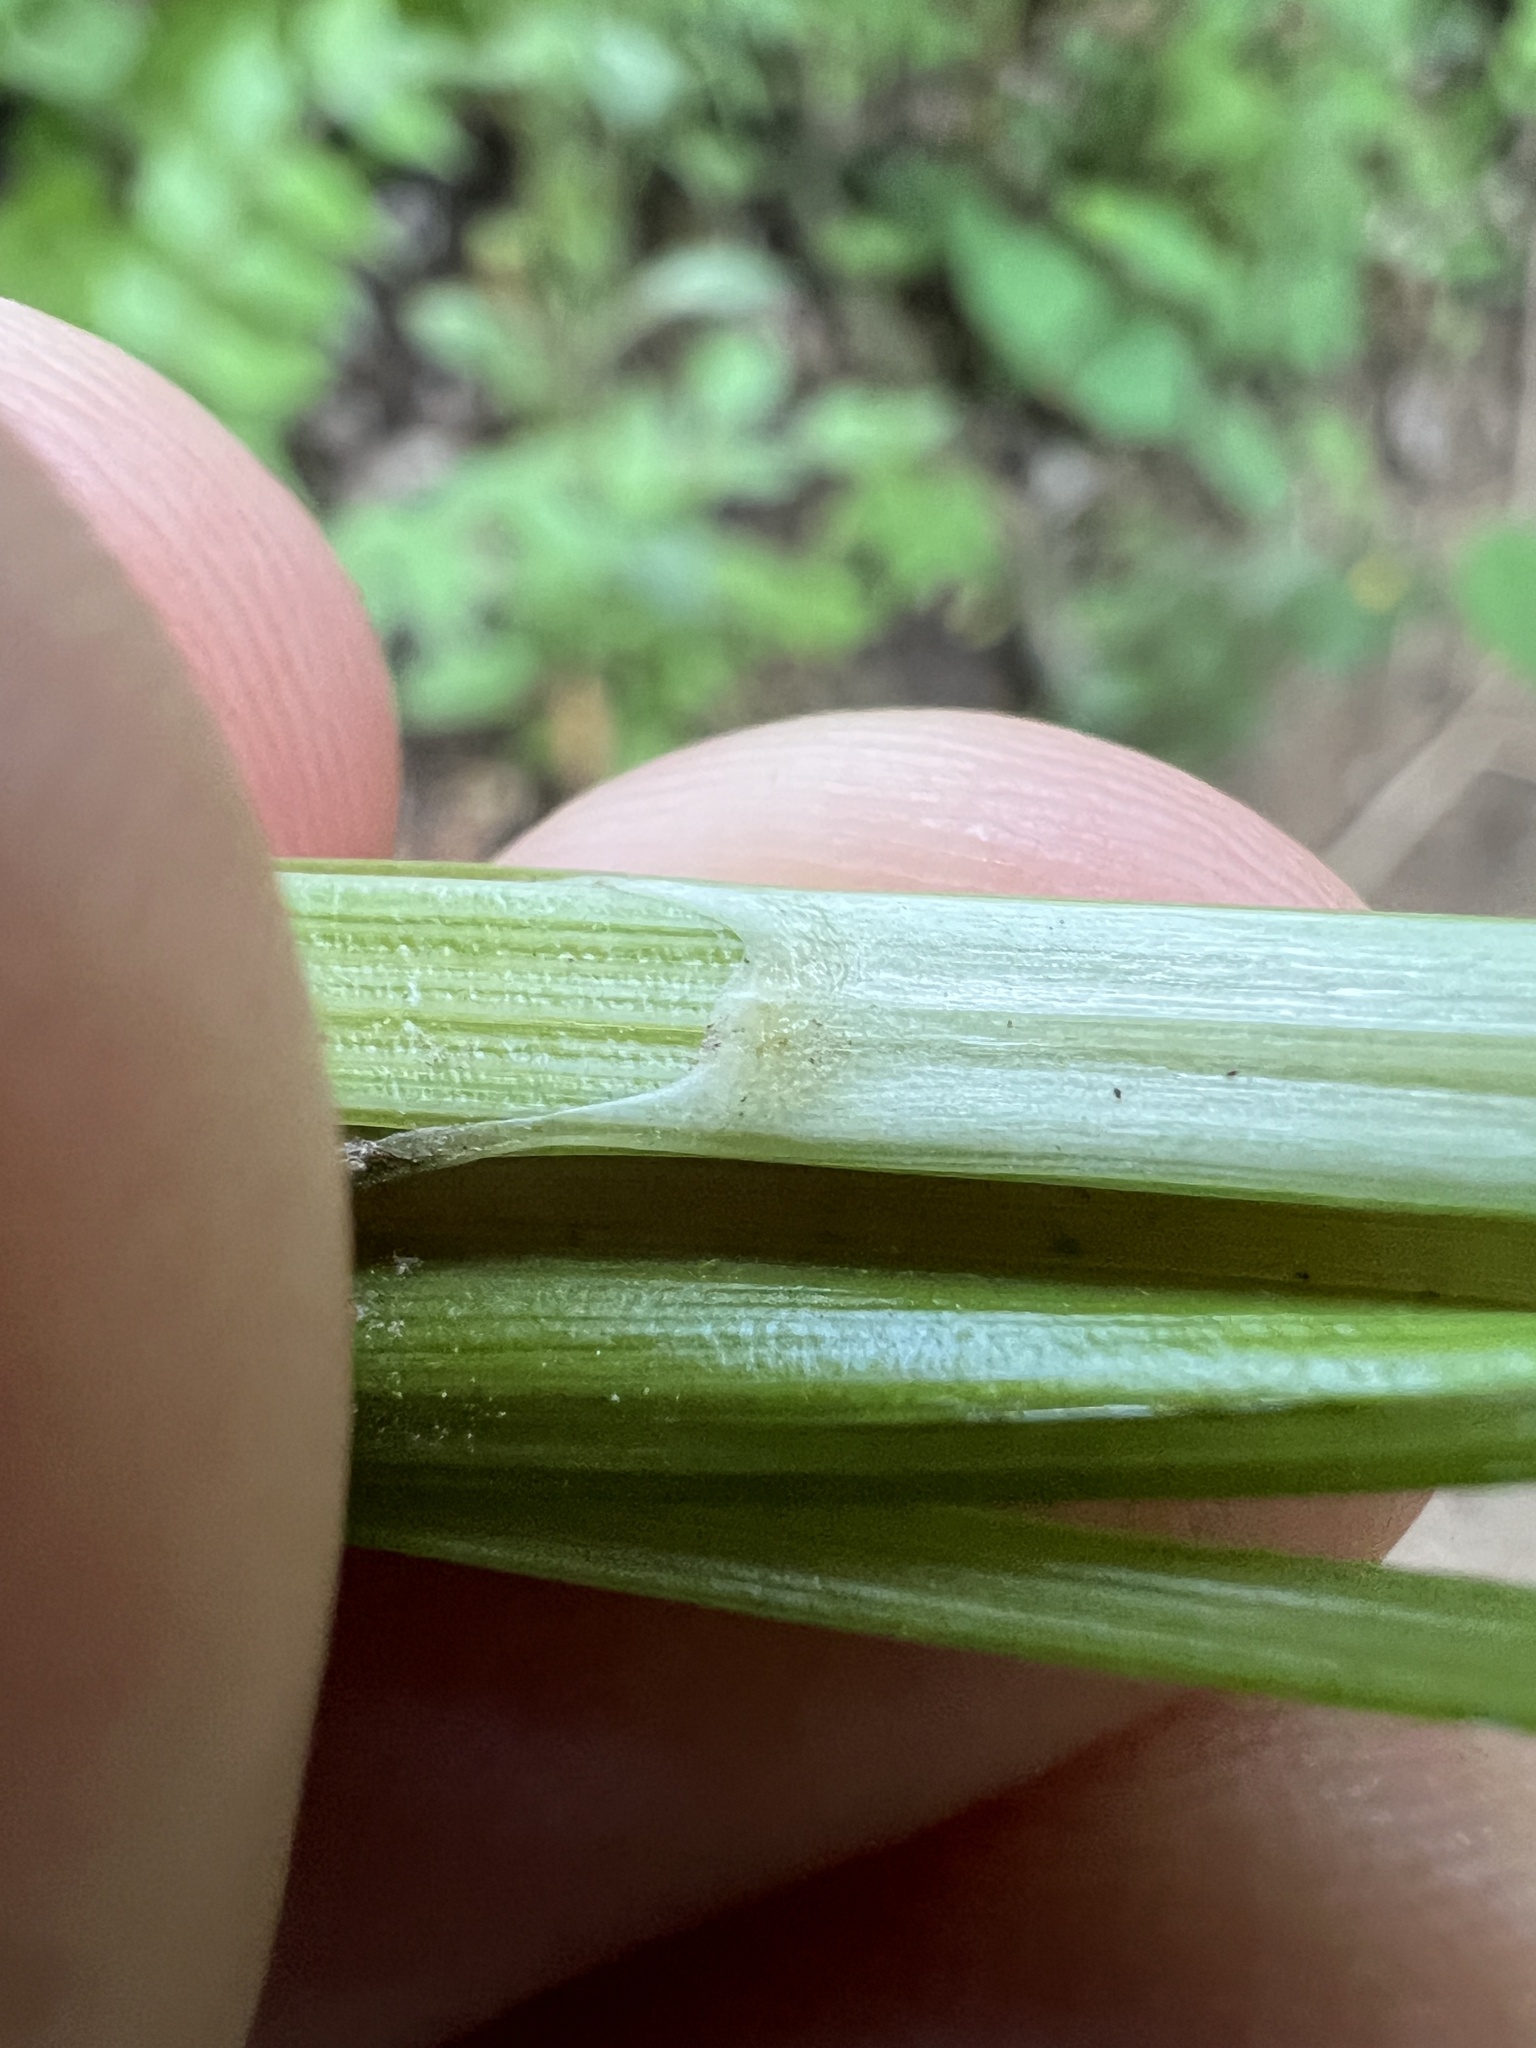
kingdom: Plantae
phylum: Tracheophyta
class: Liliopsida
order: Poales
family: Cyperaceae
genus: Carex
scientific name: Carex laevivaginata
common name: Smooth-sheathed fox sedge
